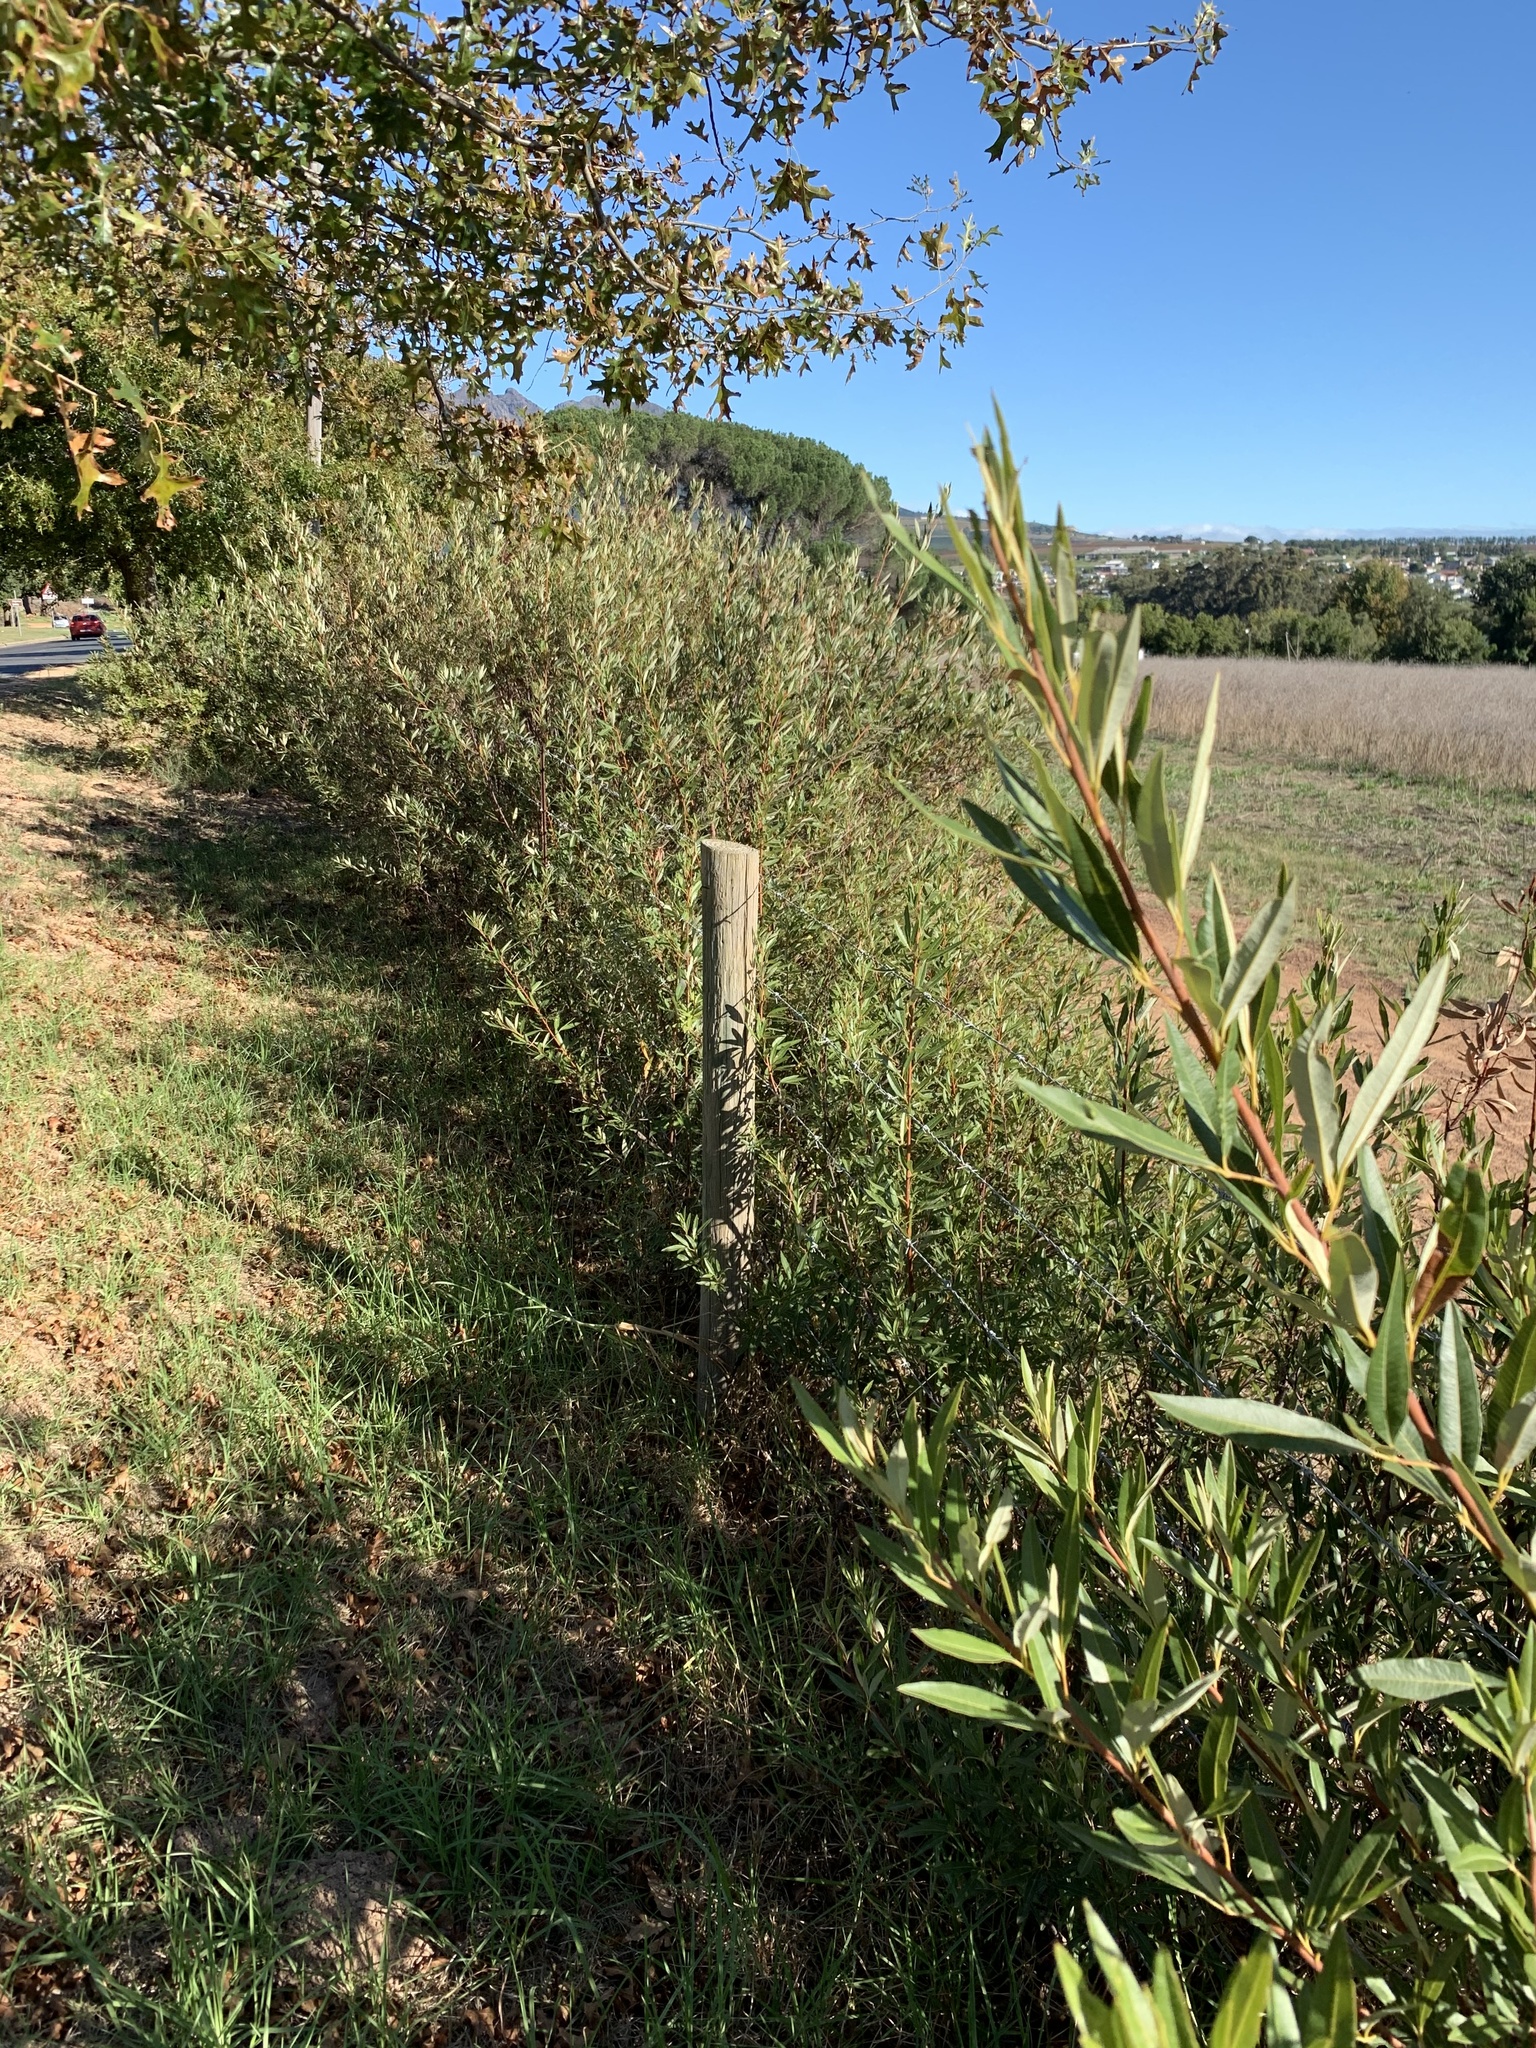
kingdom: Plantae
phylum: Tracheophyta
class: Magnoliopsida
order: Sapindales
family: Anacardiaceae
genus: Searsia
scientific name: Searsia angustifolia
